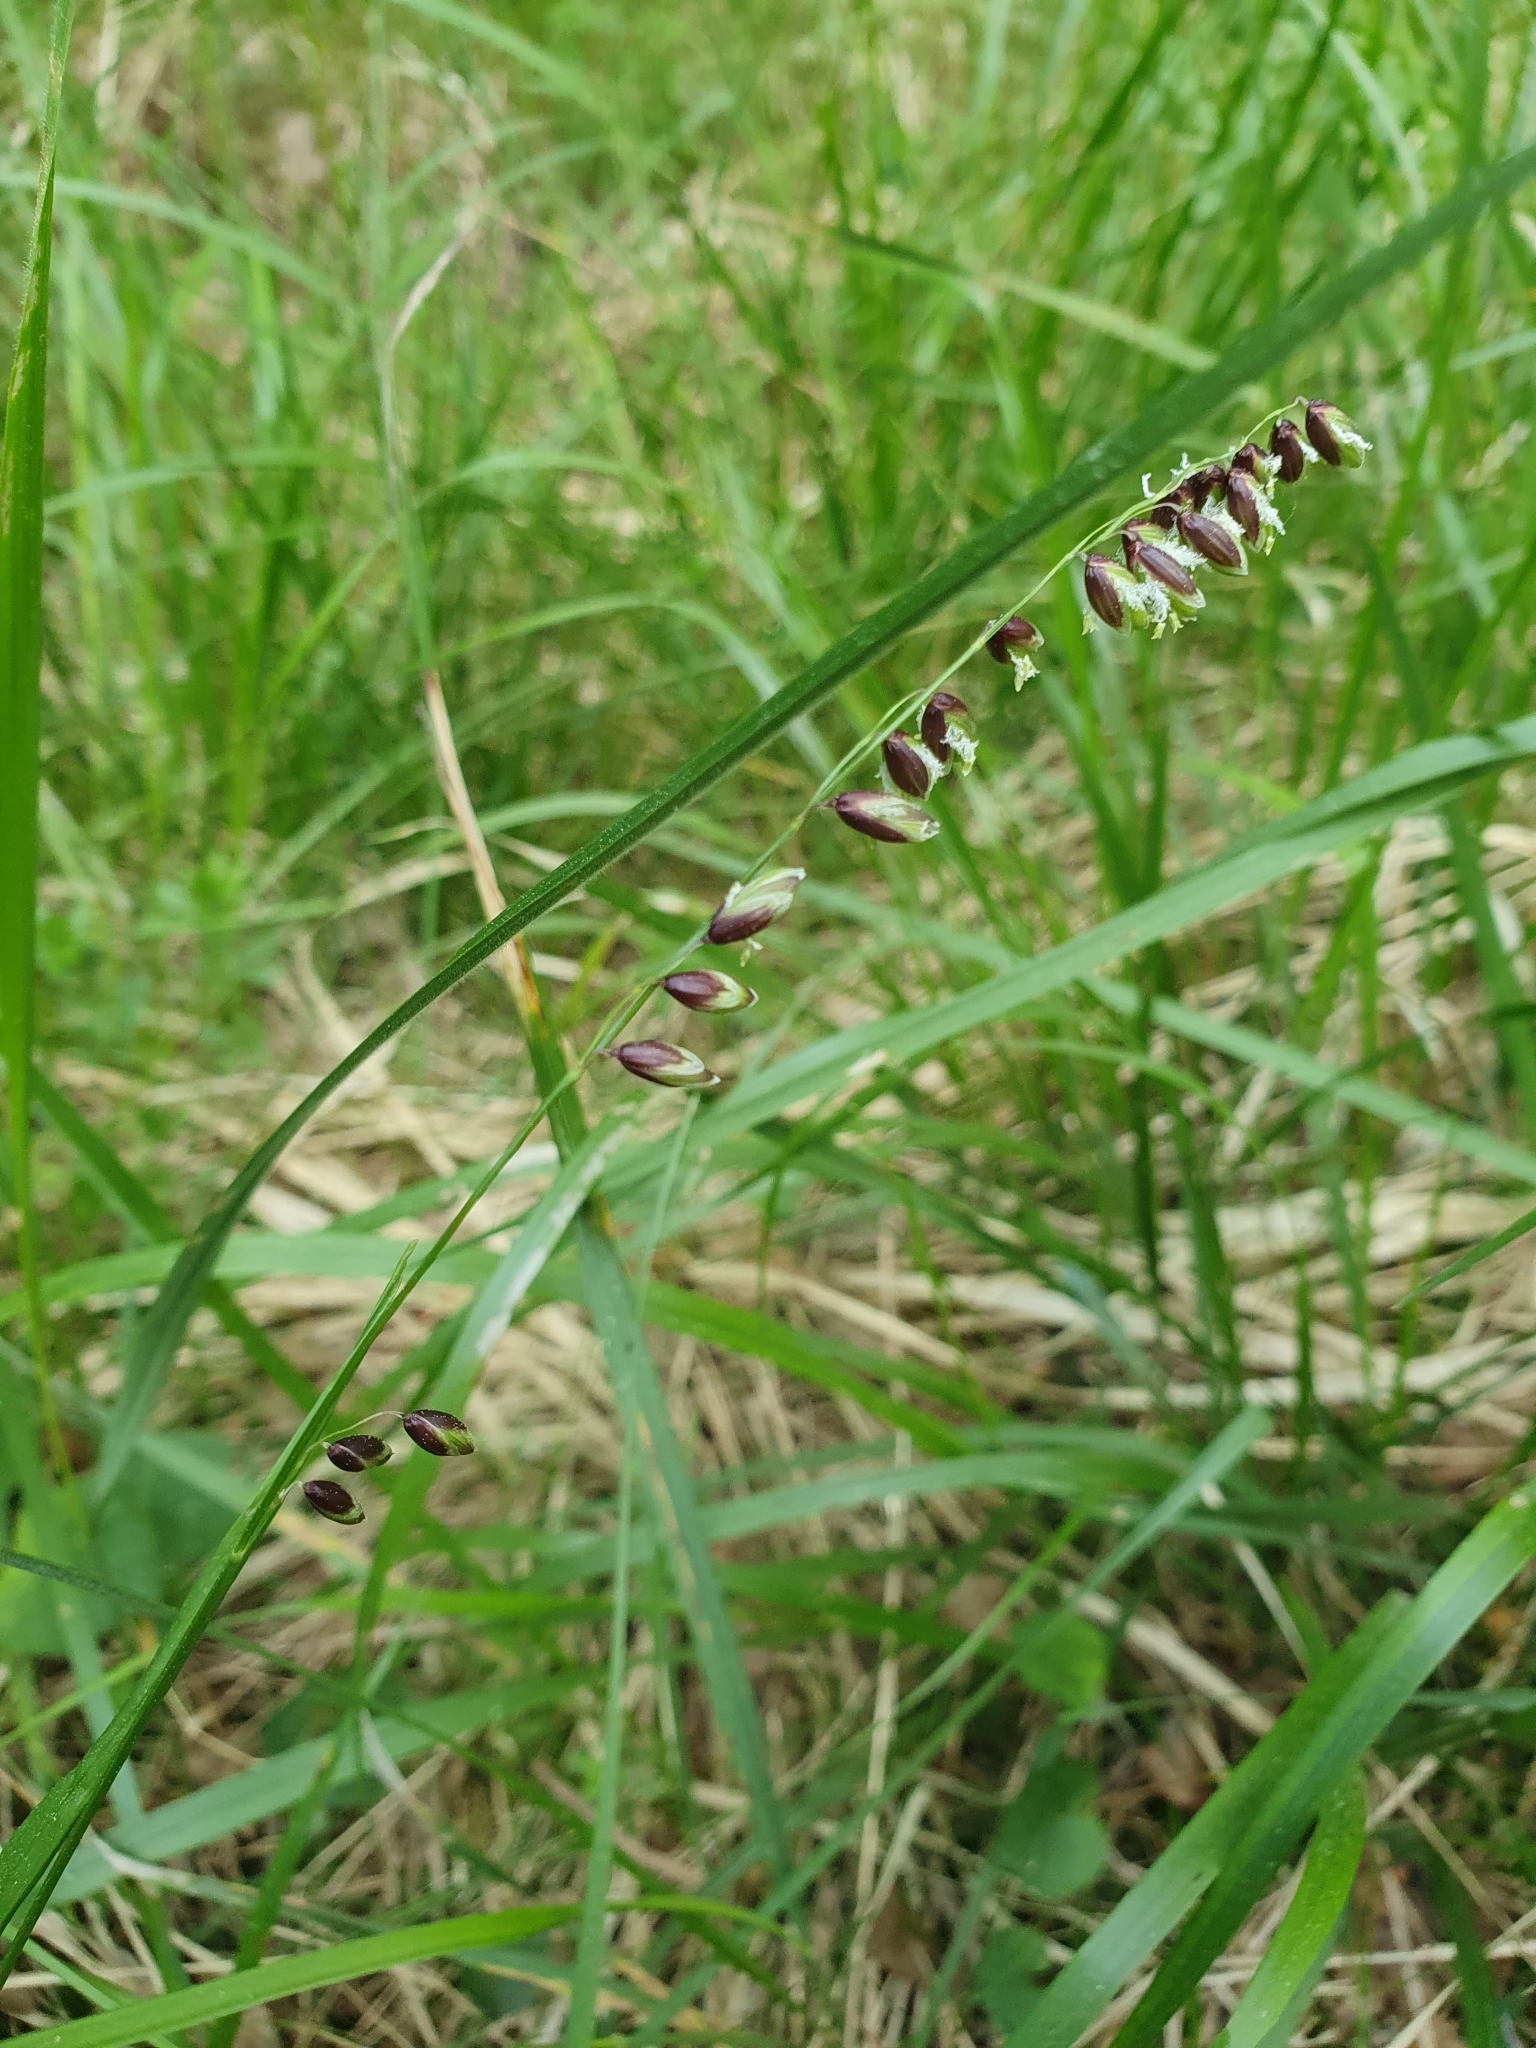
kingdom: Plantae
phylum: Tracheophyta
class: Liliopsida
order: Poales
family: Poaceae
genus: Melica
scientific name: Melica nutans
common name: Mountain melick
